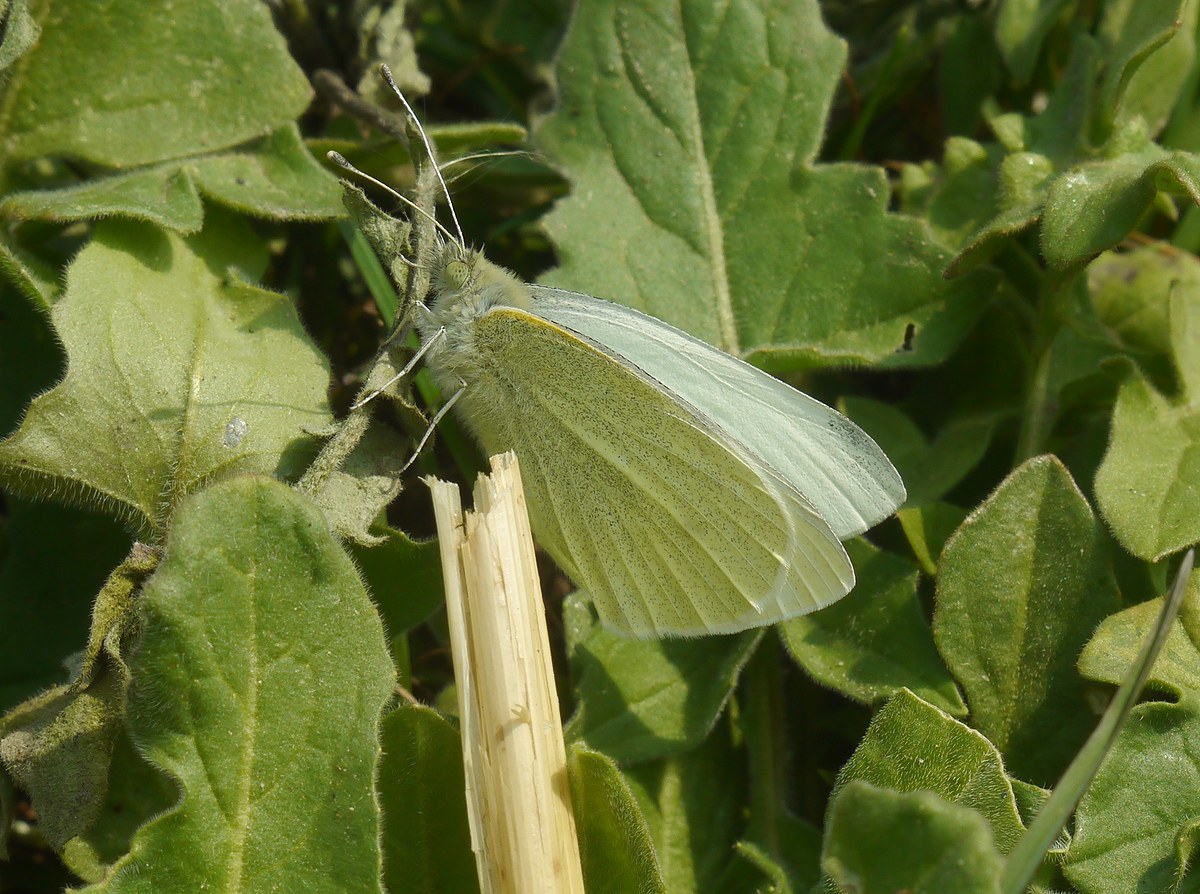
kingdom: Animalia
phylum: Arthropoda
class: Insecta
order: Lepidoptera
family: Pieridae
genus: Pieris
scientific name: Pieris rapae
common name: Small white
